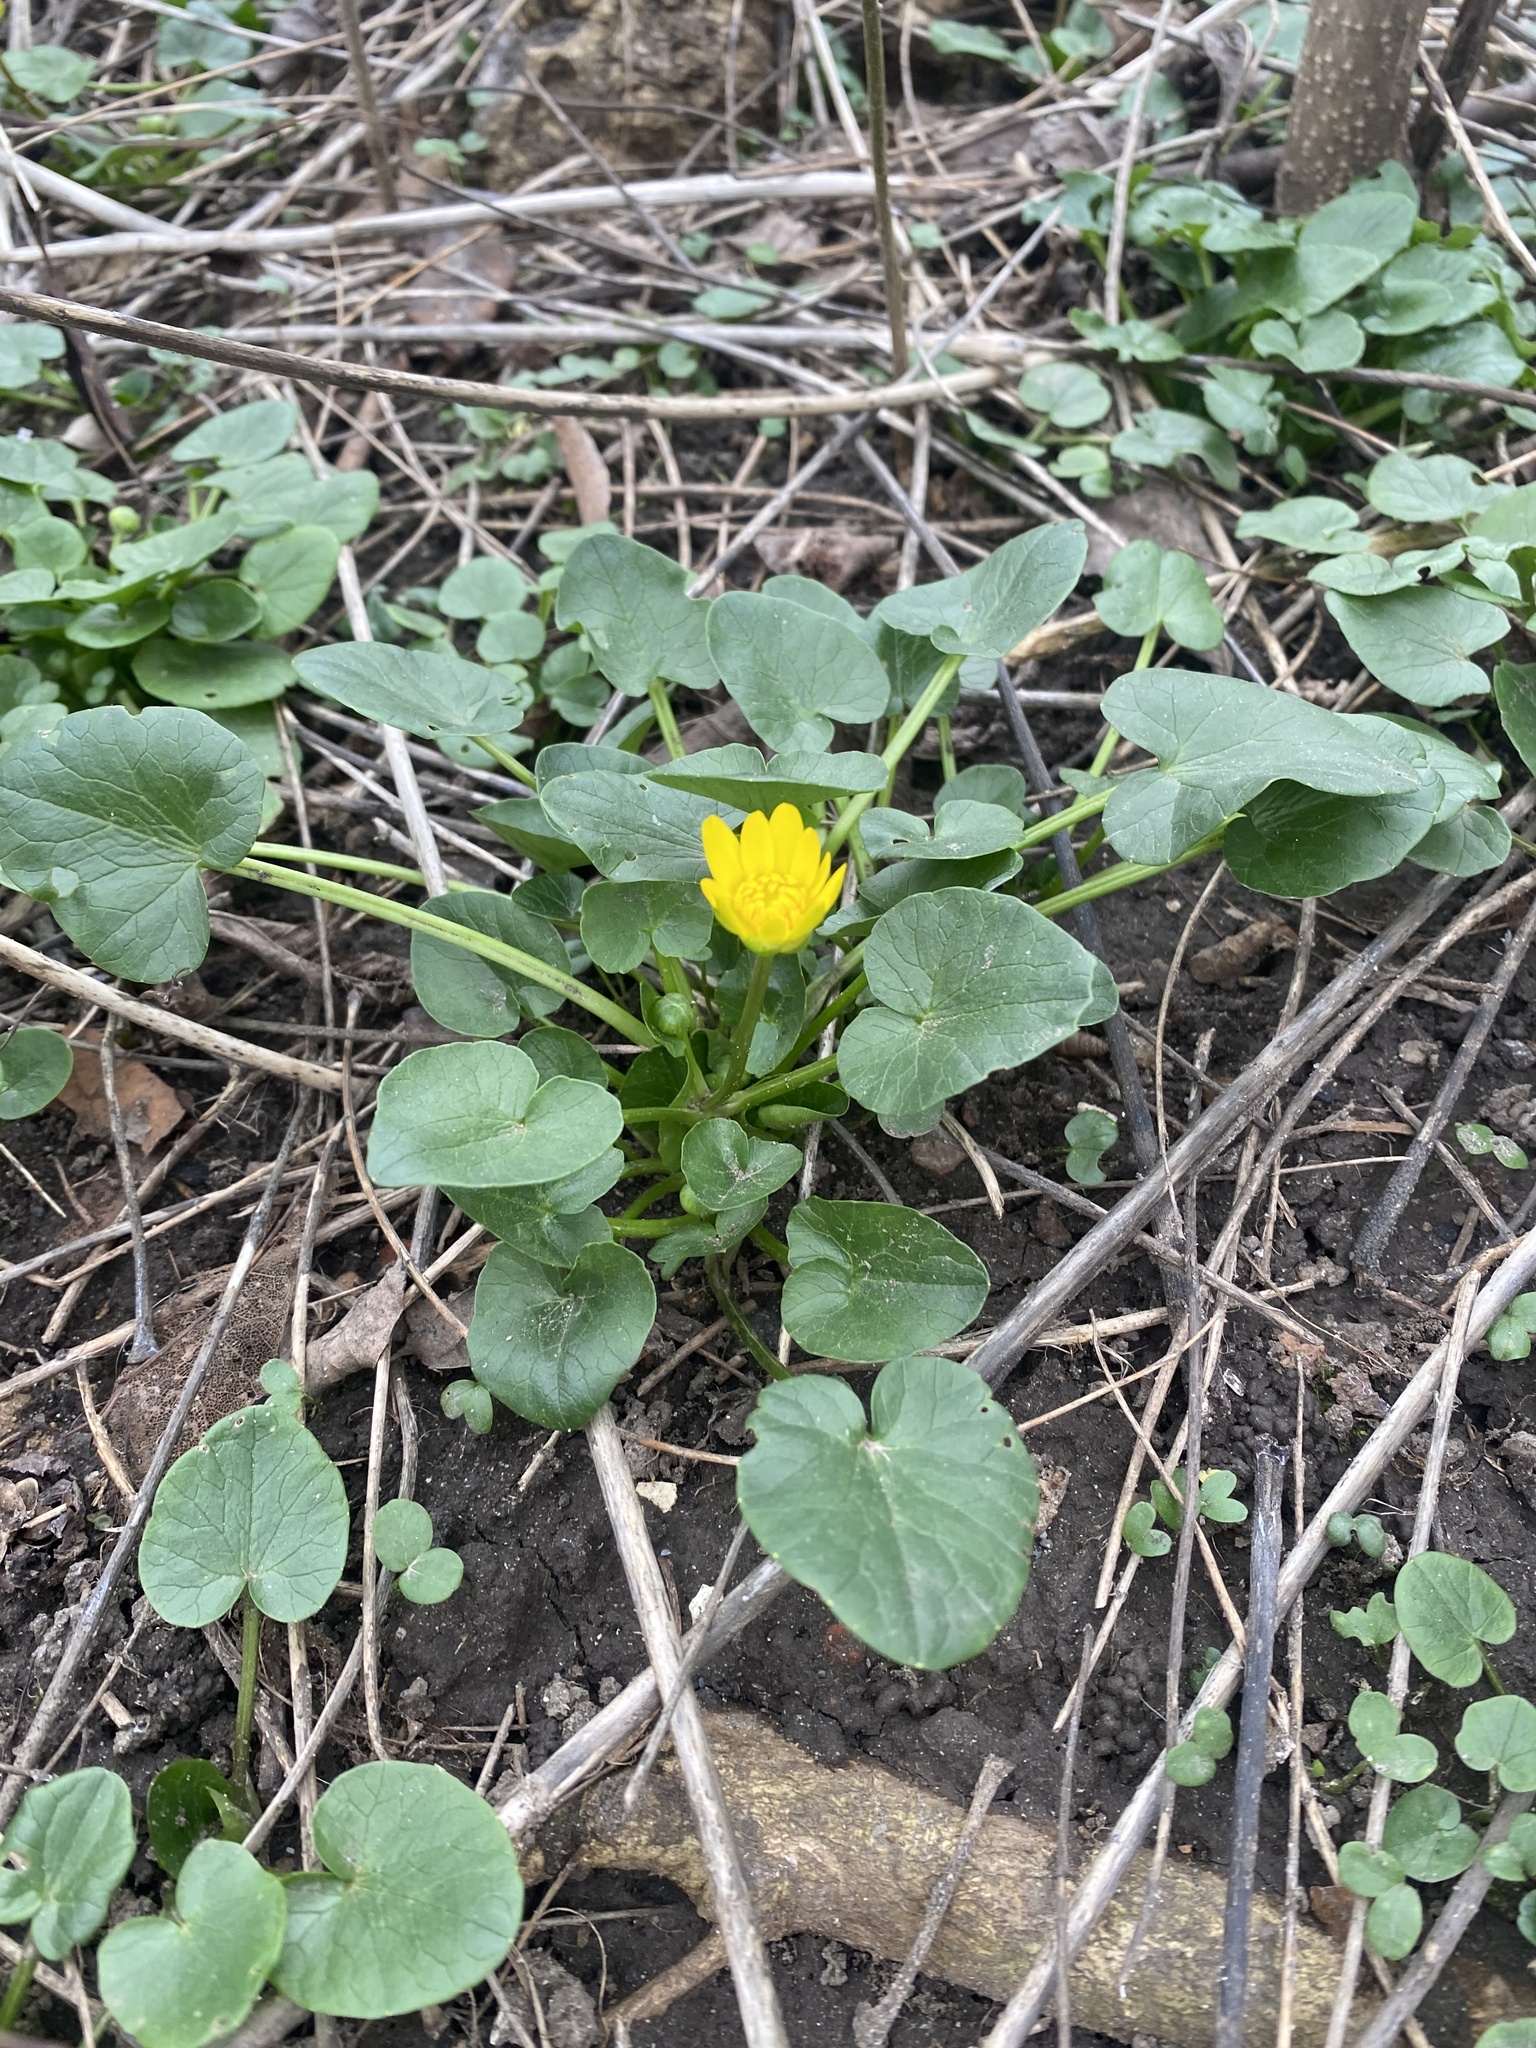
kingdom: Plantae
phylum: Tracheophyta
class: Magnoliopsida
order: Ranunculales
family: Ranunculaceae
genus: Ficaria
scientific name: Ficaria verna
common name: Lesser celandine
